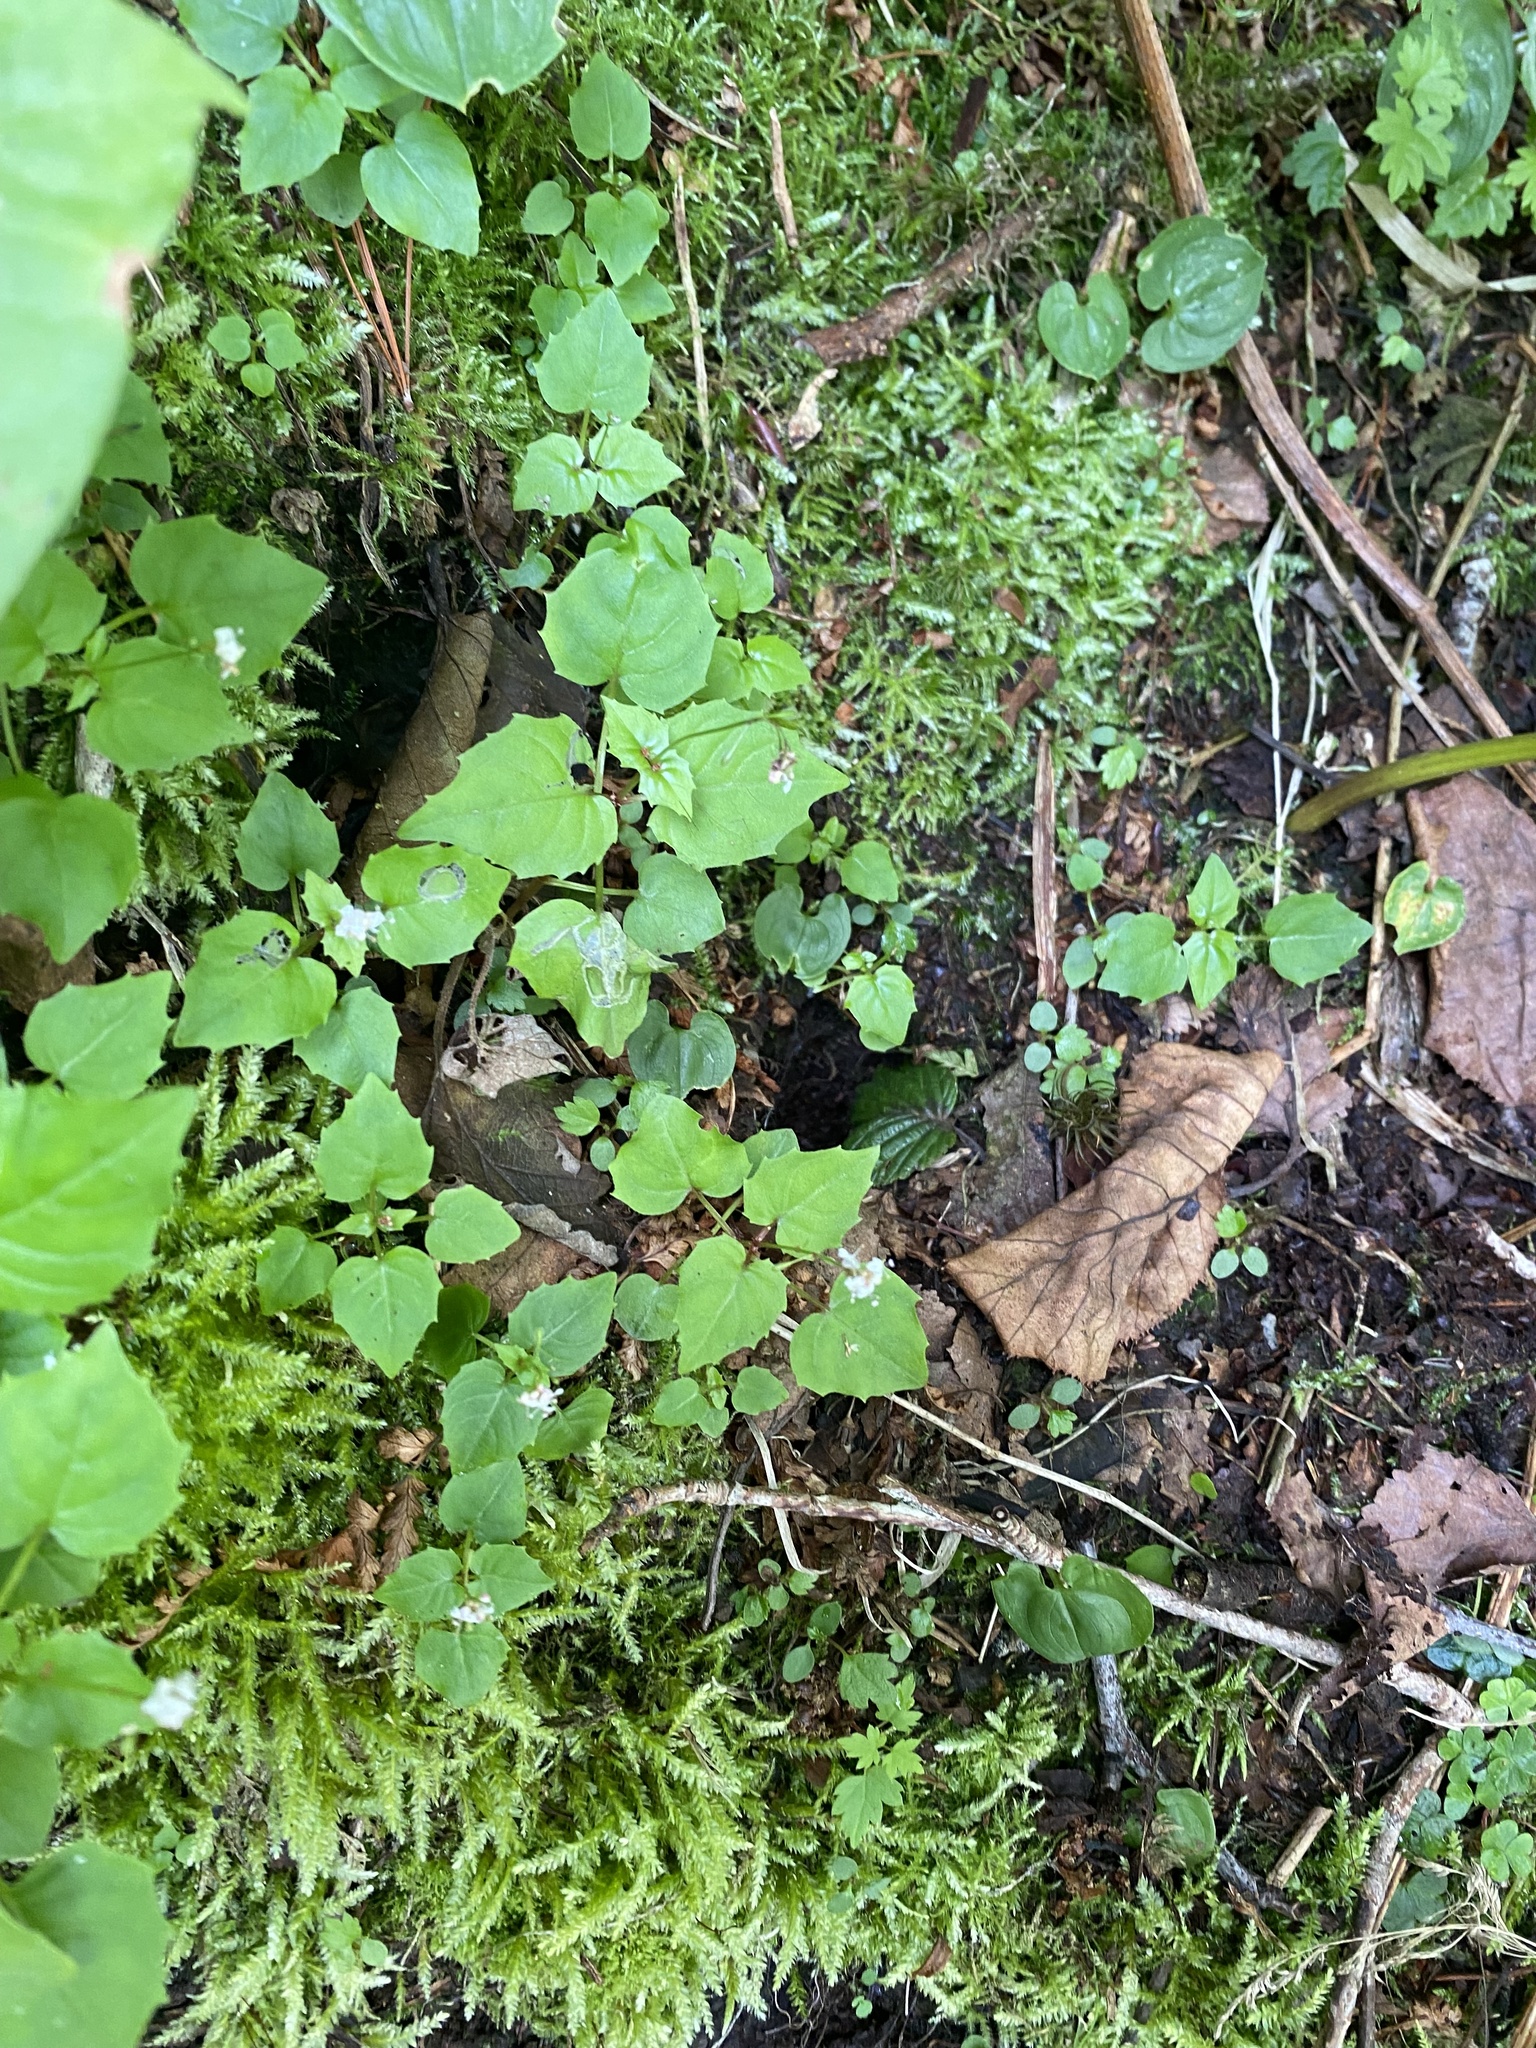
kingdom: Plantae
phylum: Tracheophyta
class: Magnoliopsida
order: Myrtales
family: Onagraceae
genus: Circaea
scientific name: Circaea alpina
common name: Alpine enchanter's-nightshade
